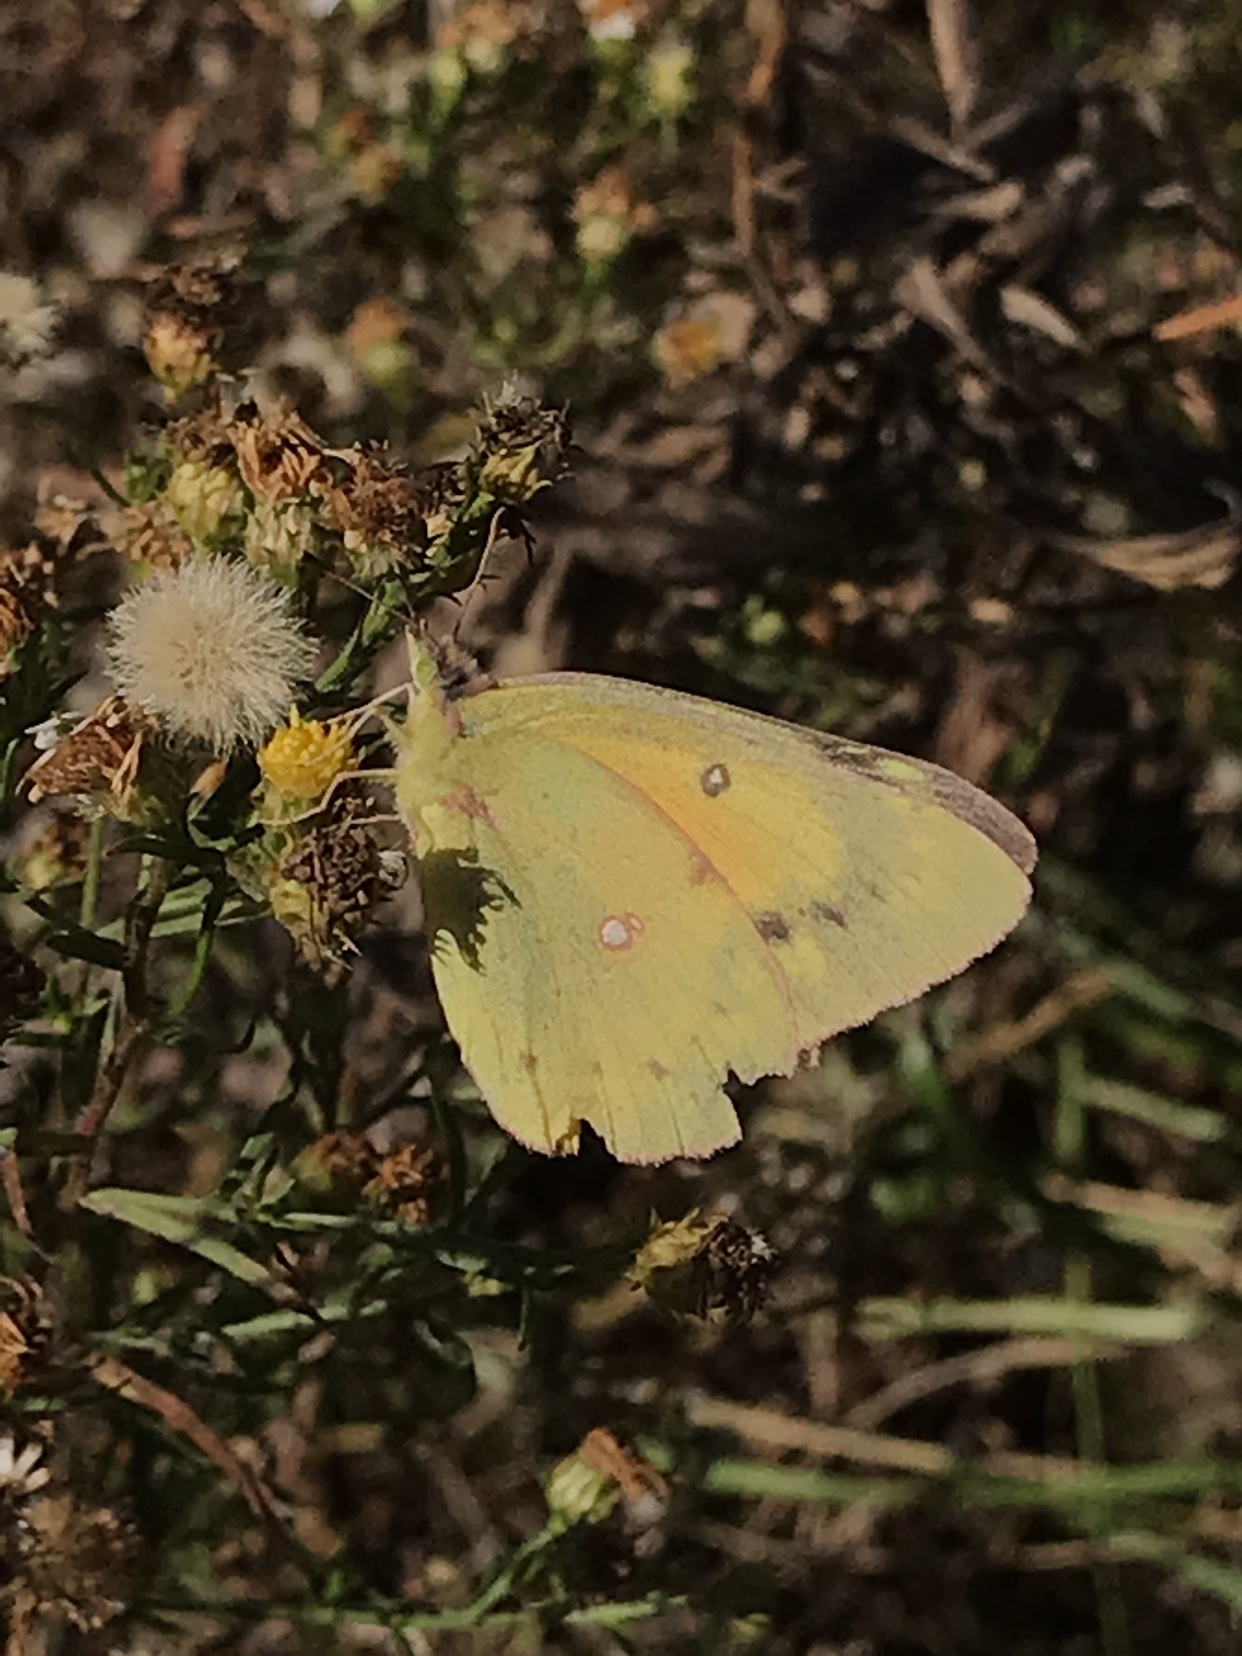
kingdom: Animalia
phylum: Arthropoda
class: Insecta
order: Lepidoptera
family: Pieridae
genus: Colias
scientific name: Colias eurytheme
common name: Alfalfa butterfly
